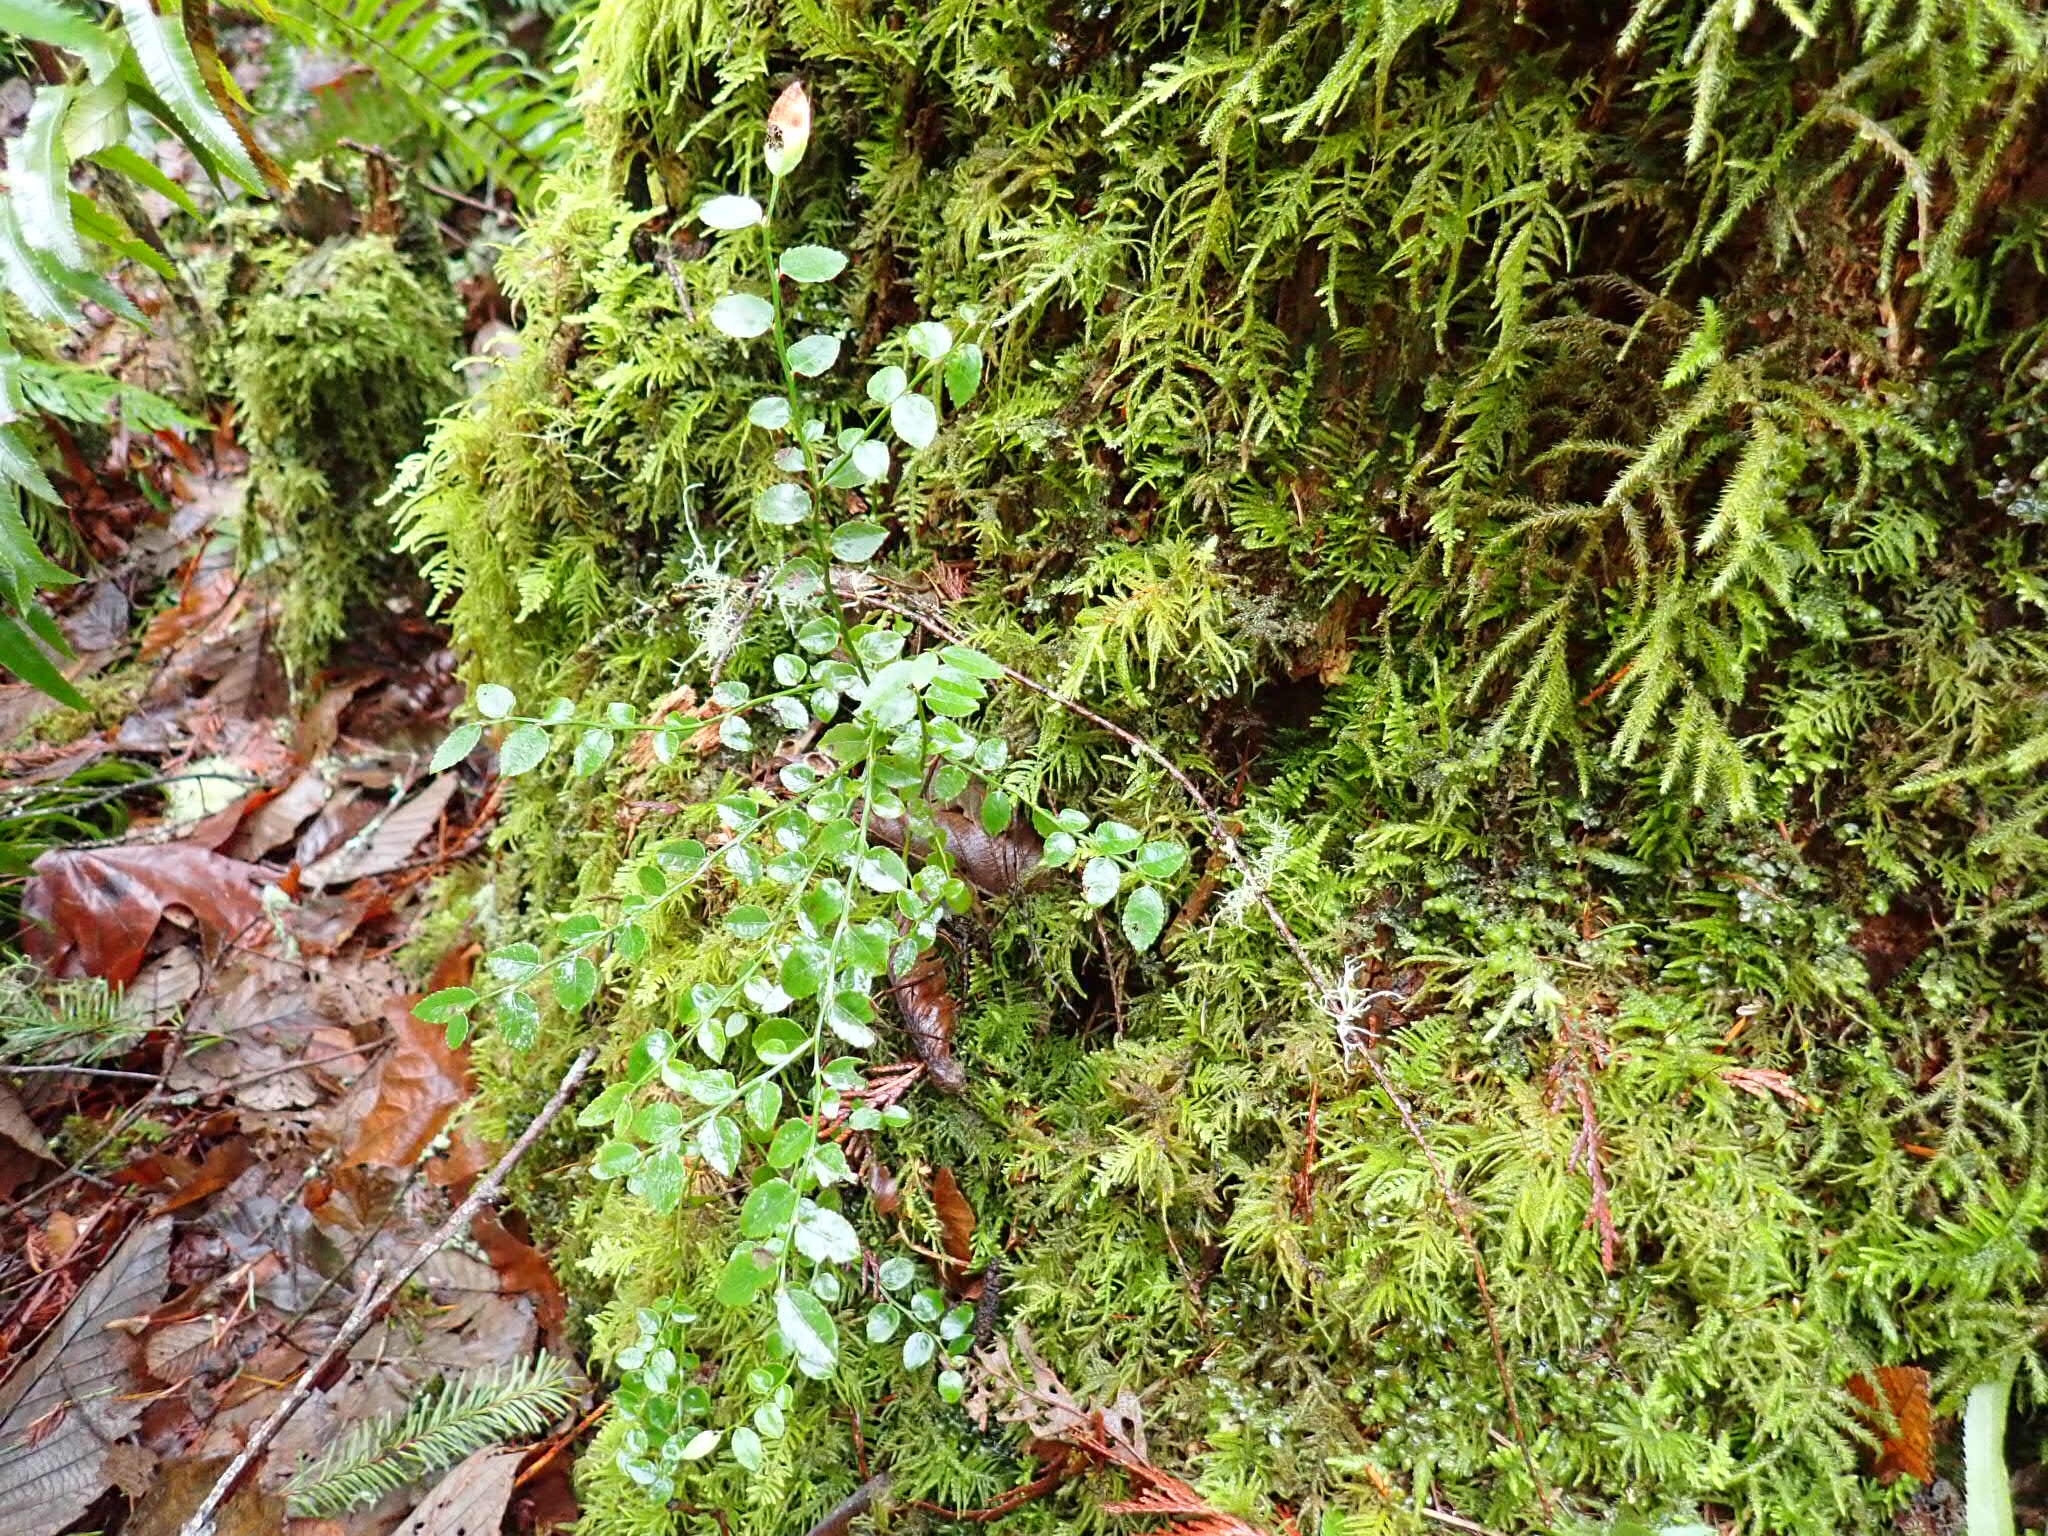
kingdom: Plantae
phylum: Tracheophyta
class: Magnoliopsida
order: Ericales
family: Ericaceae
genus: Vaccinium
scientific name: Vaccinium parvifolium
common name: Red-huckleberry
